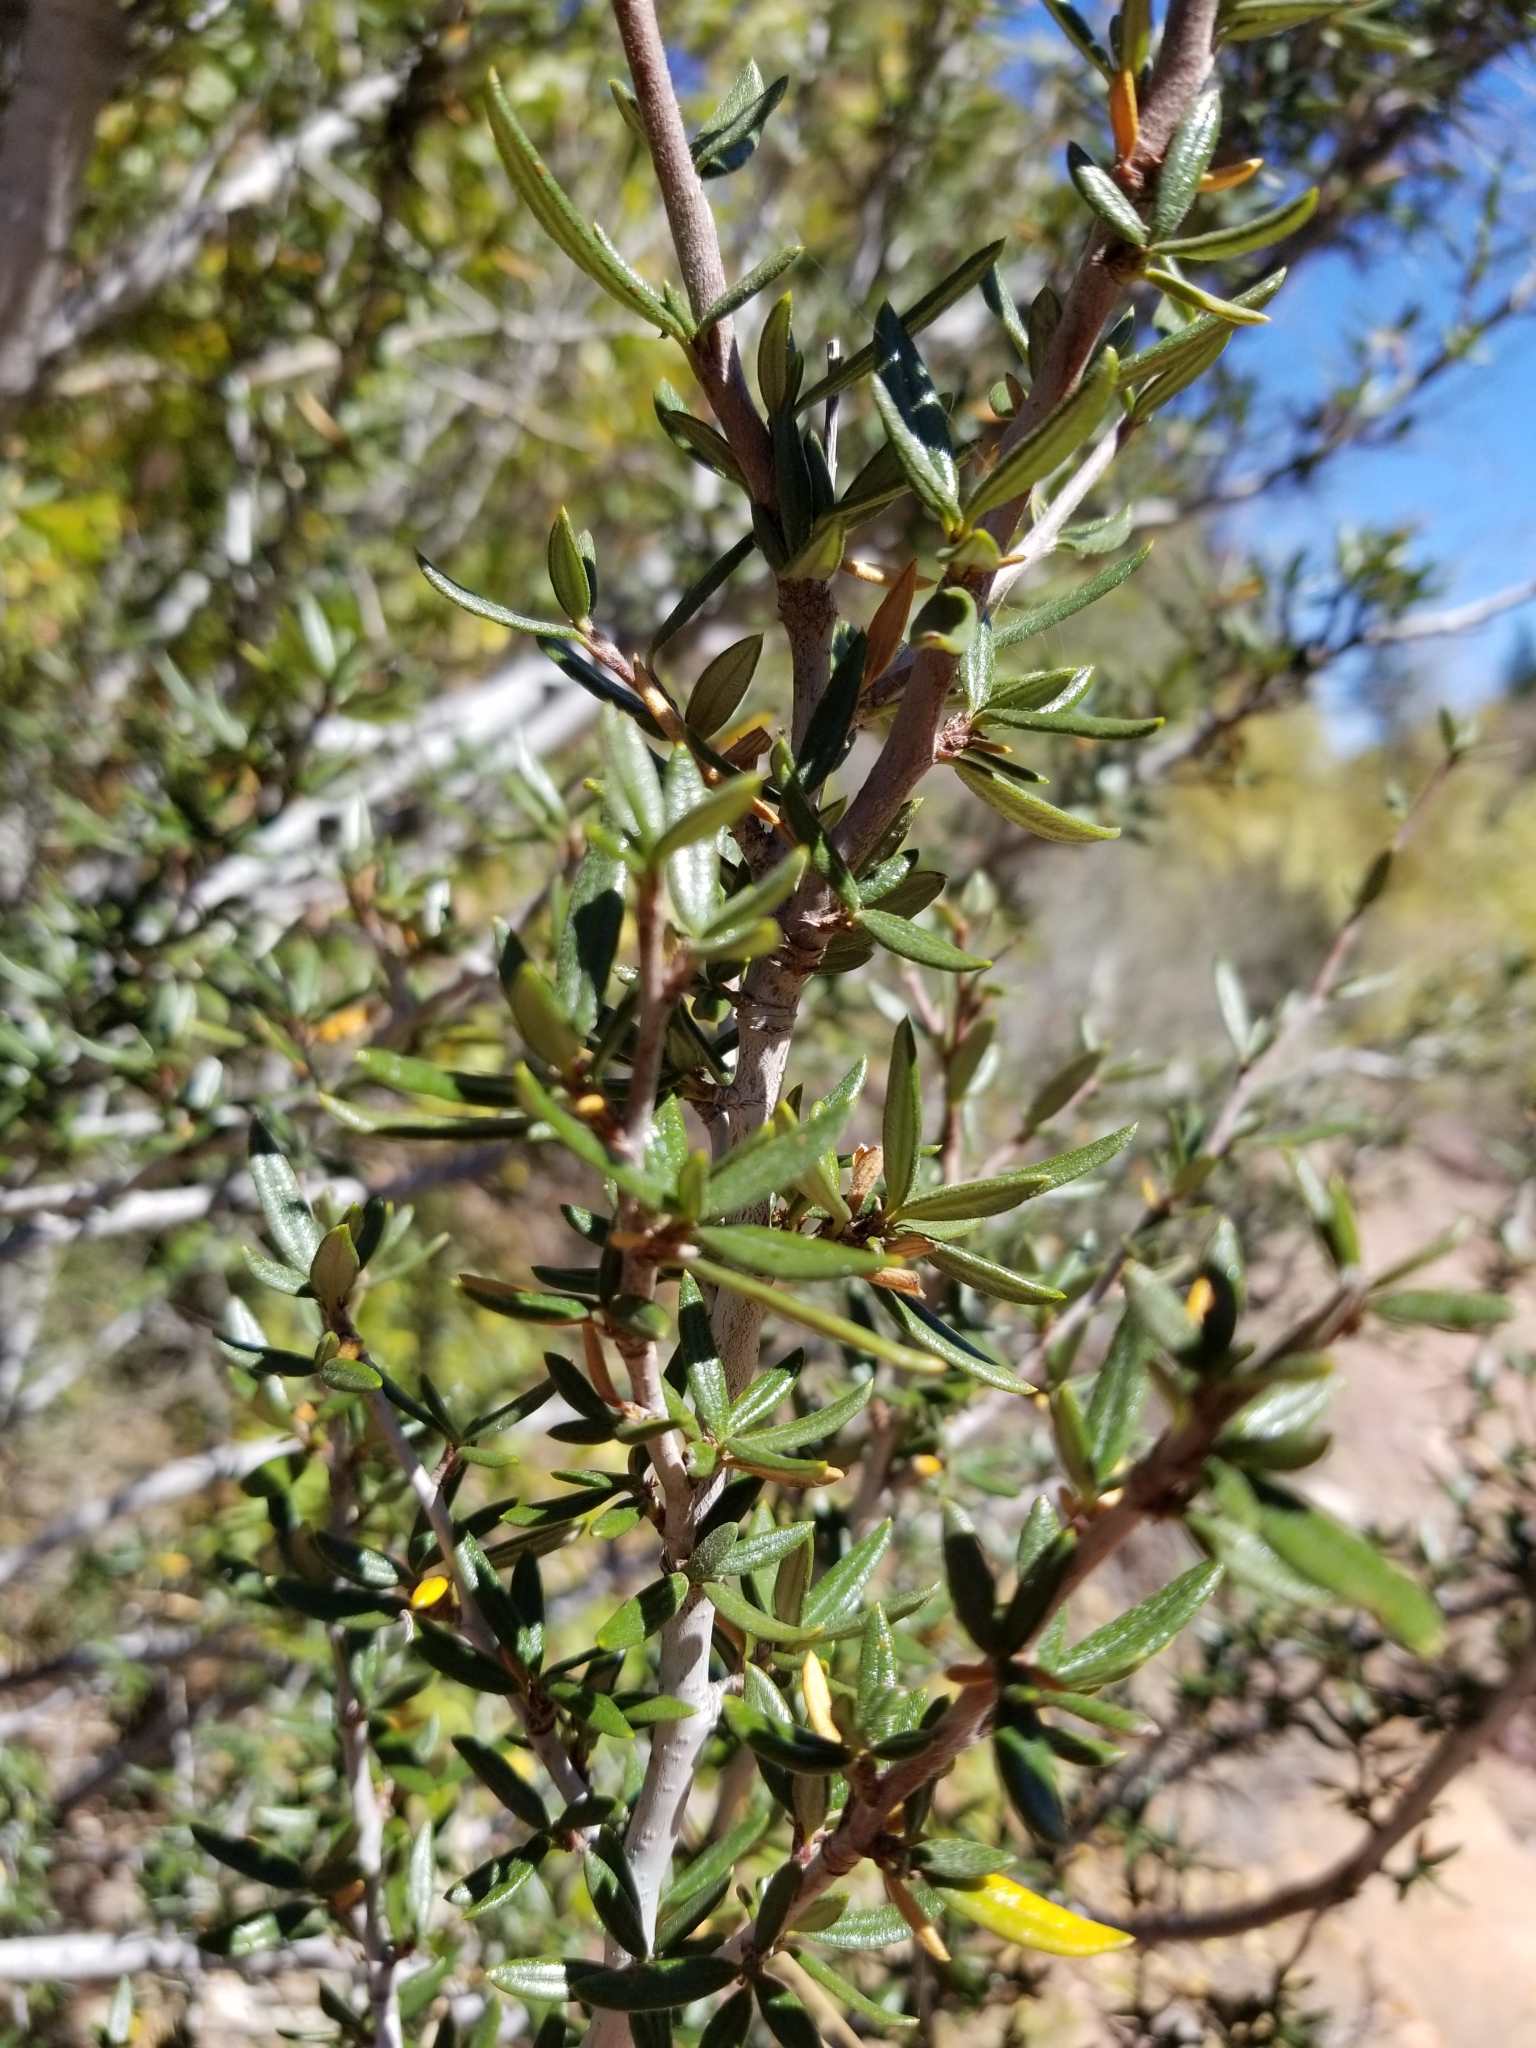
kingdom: Plantae
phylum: Tracheophyta
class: Magnoliopsida
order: Rosales
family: Rosaceae
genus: Cercocarpus
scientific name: Cercocarpus ledifolius
